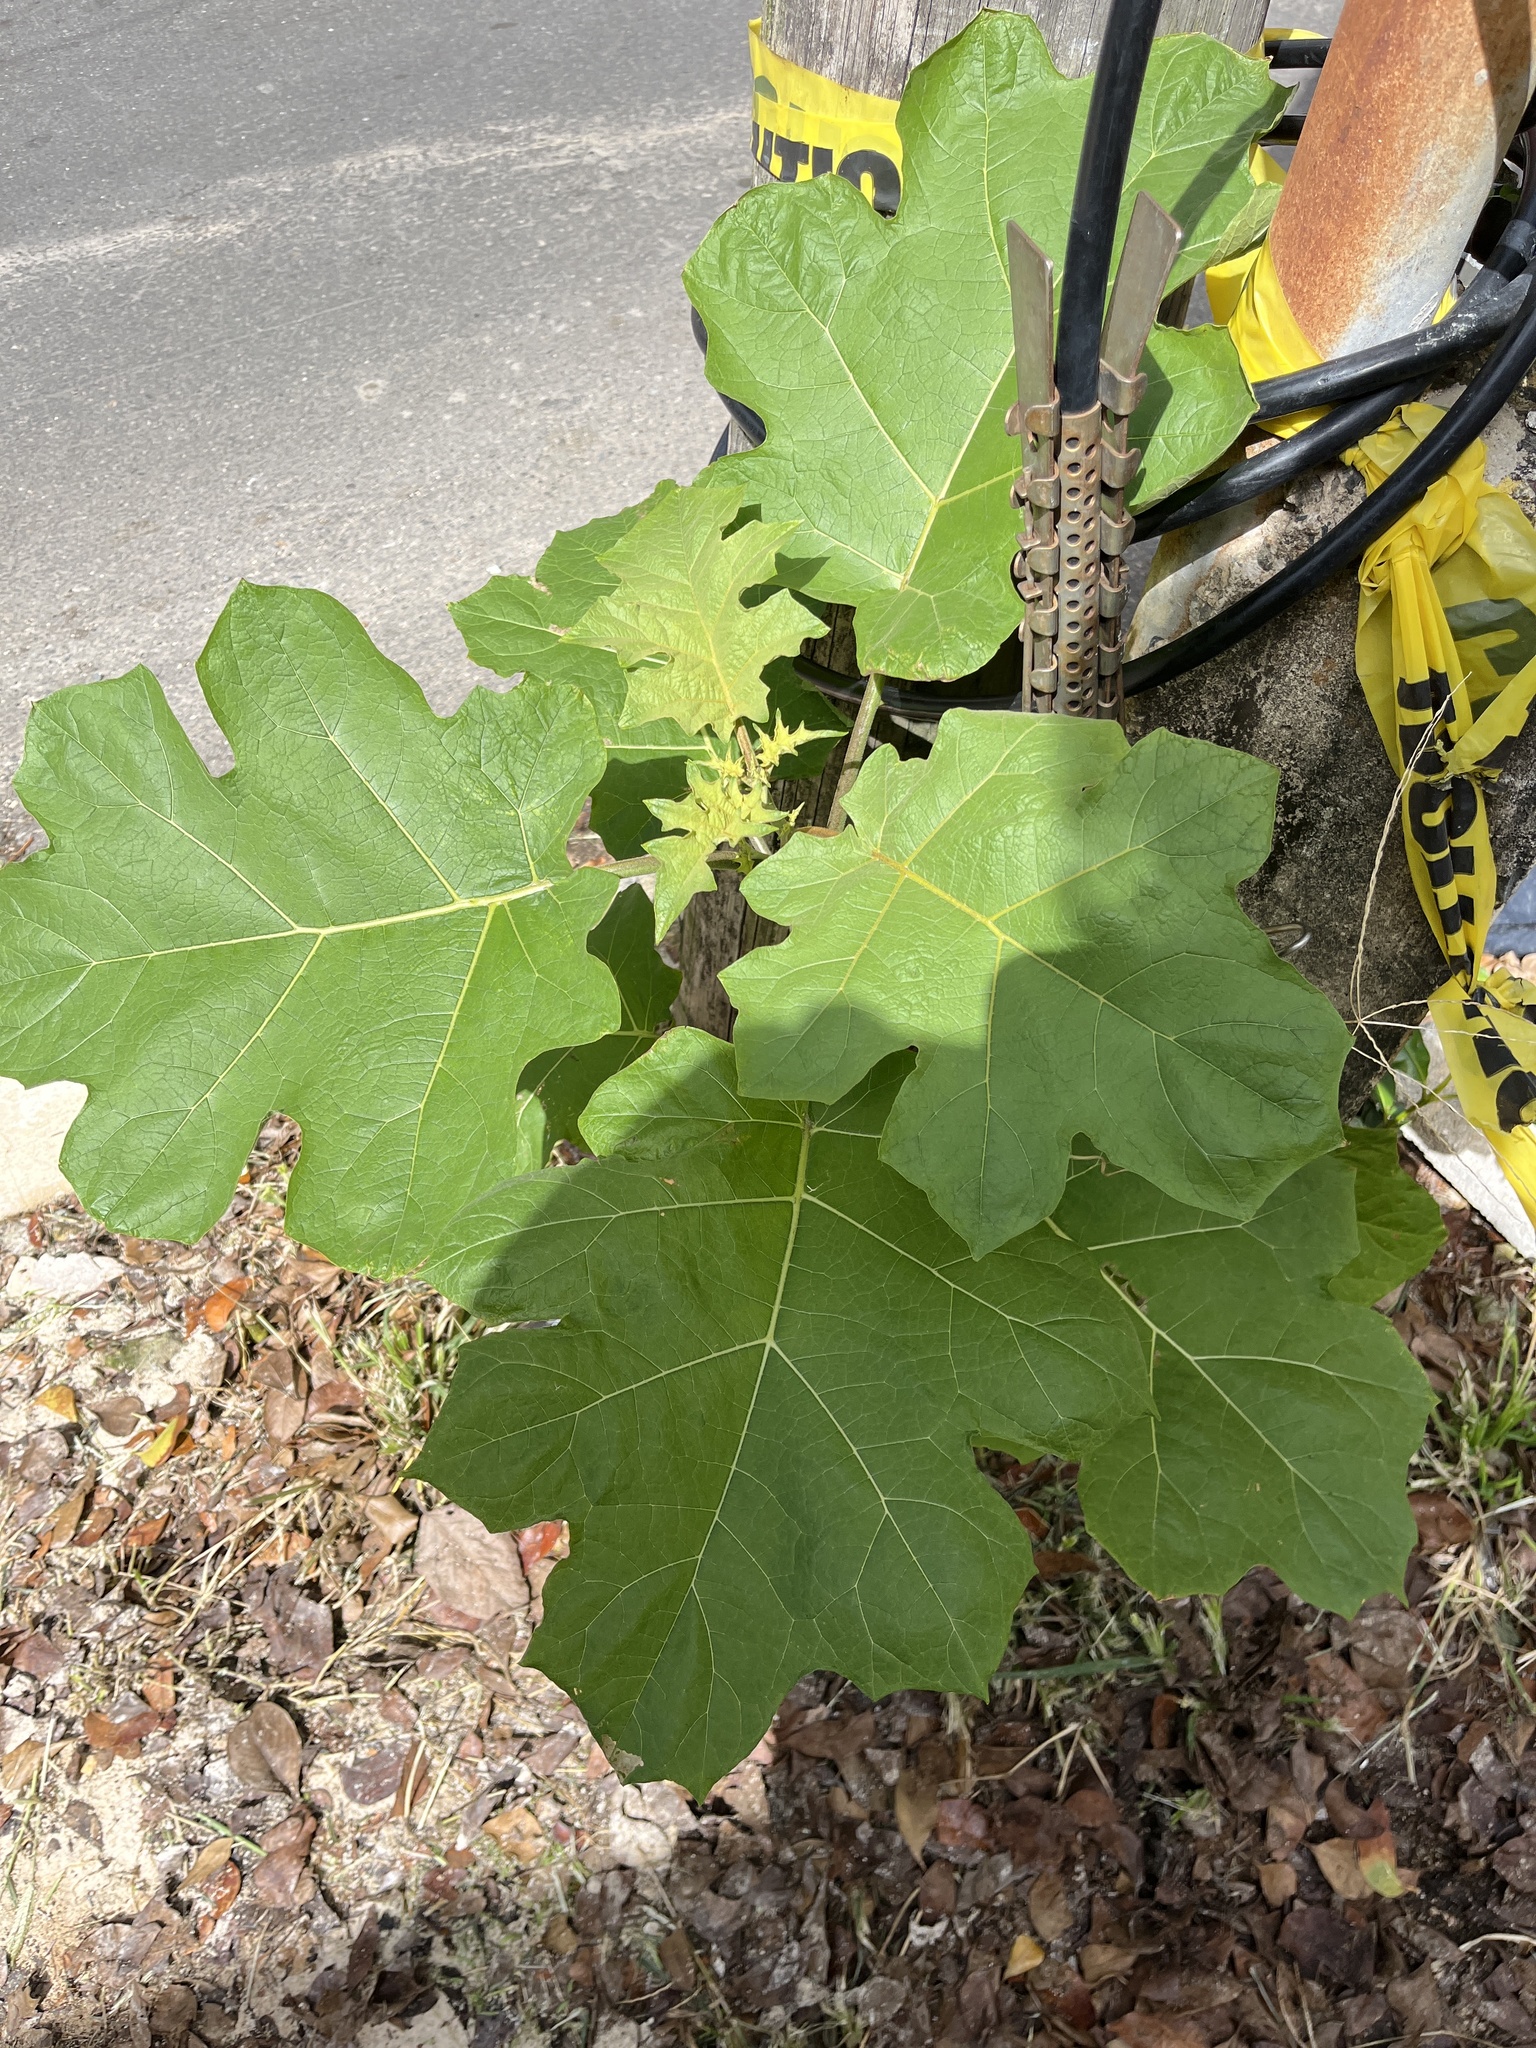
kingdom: Plantae
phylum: Tracheophyta
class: Magnoliopsida
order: Solanales
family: Solanaceae
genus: Solanum
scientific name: Solanum torvum
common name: Turkey berry
